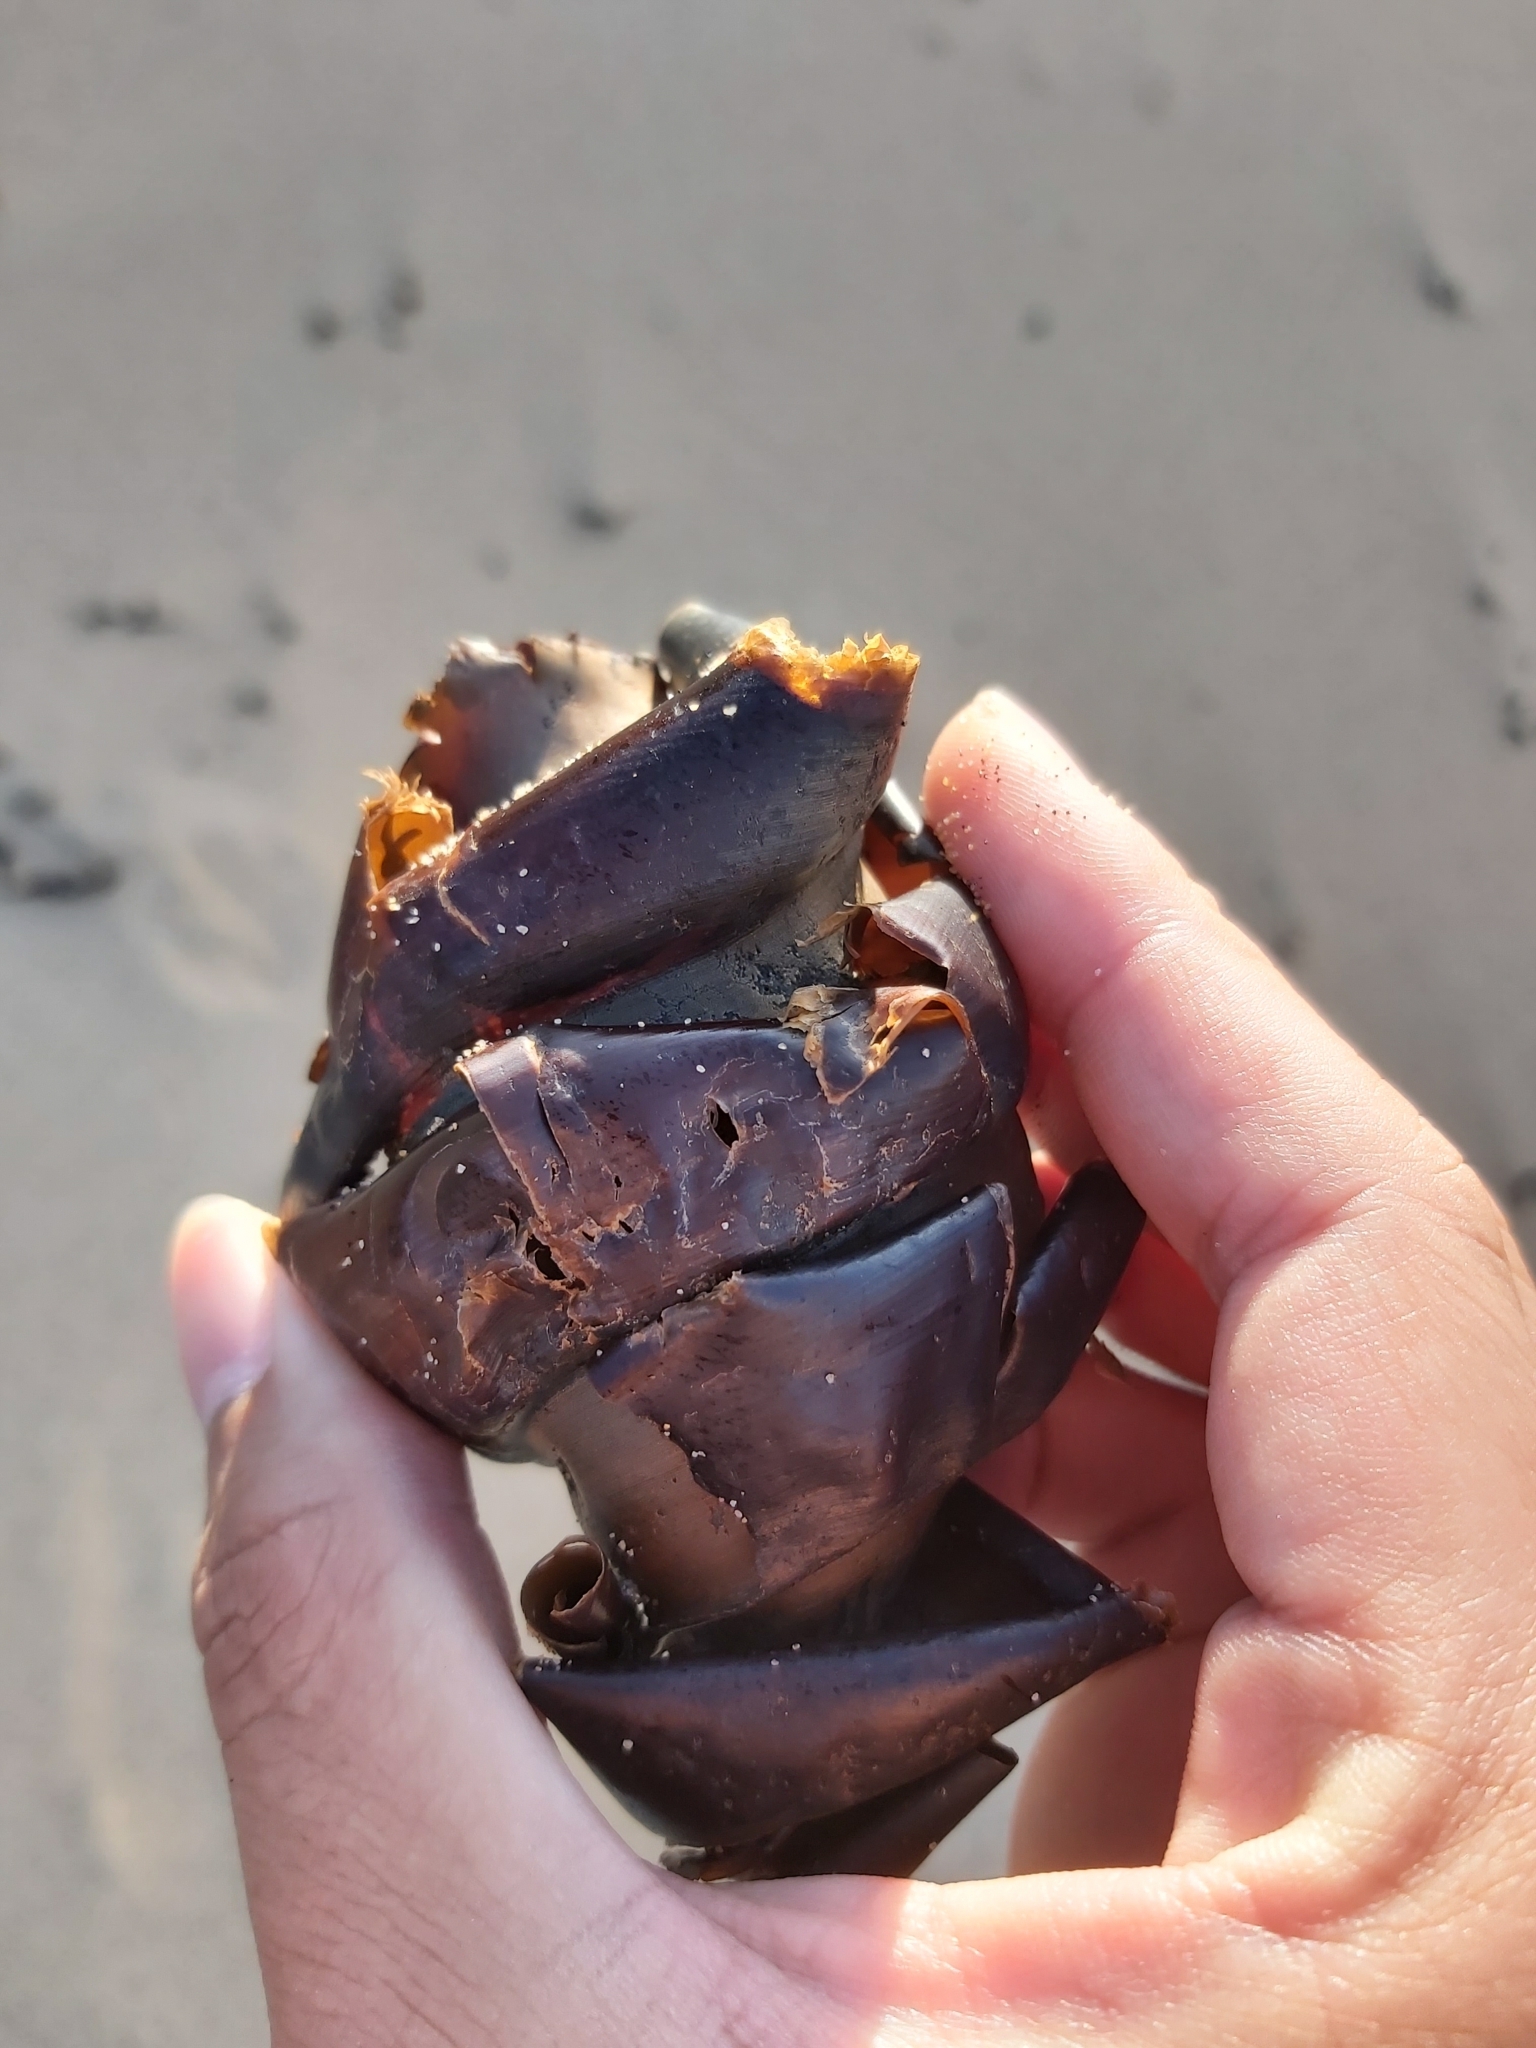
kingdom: Animalia
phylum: Chordata
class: Elasmobranchii
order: Heterodontiformes
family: Heterodontidae
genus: Heterodontus
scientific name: Heterodontus portusjacksoni
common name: Port jackson shark
